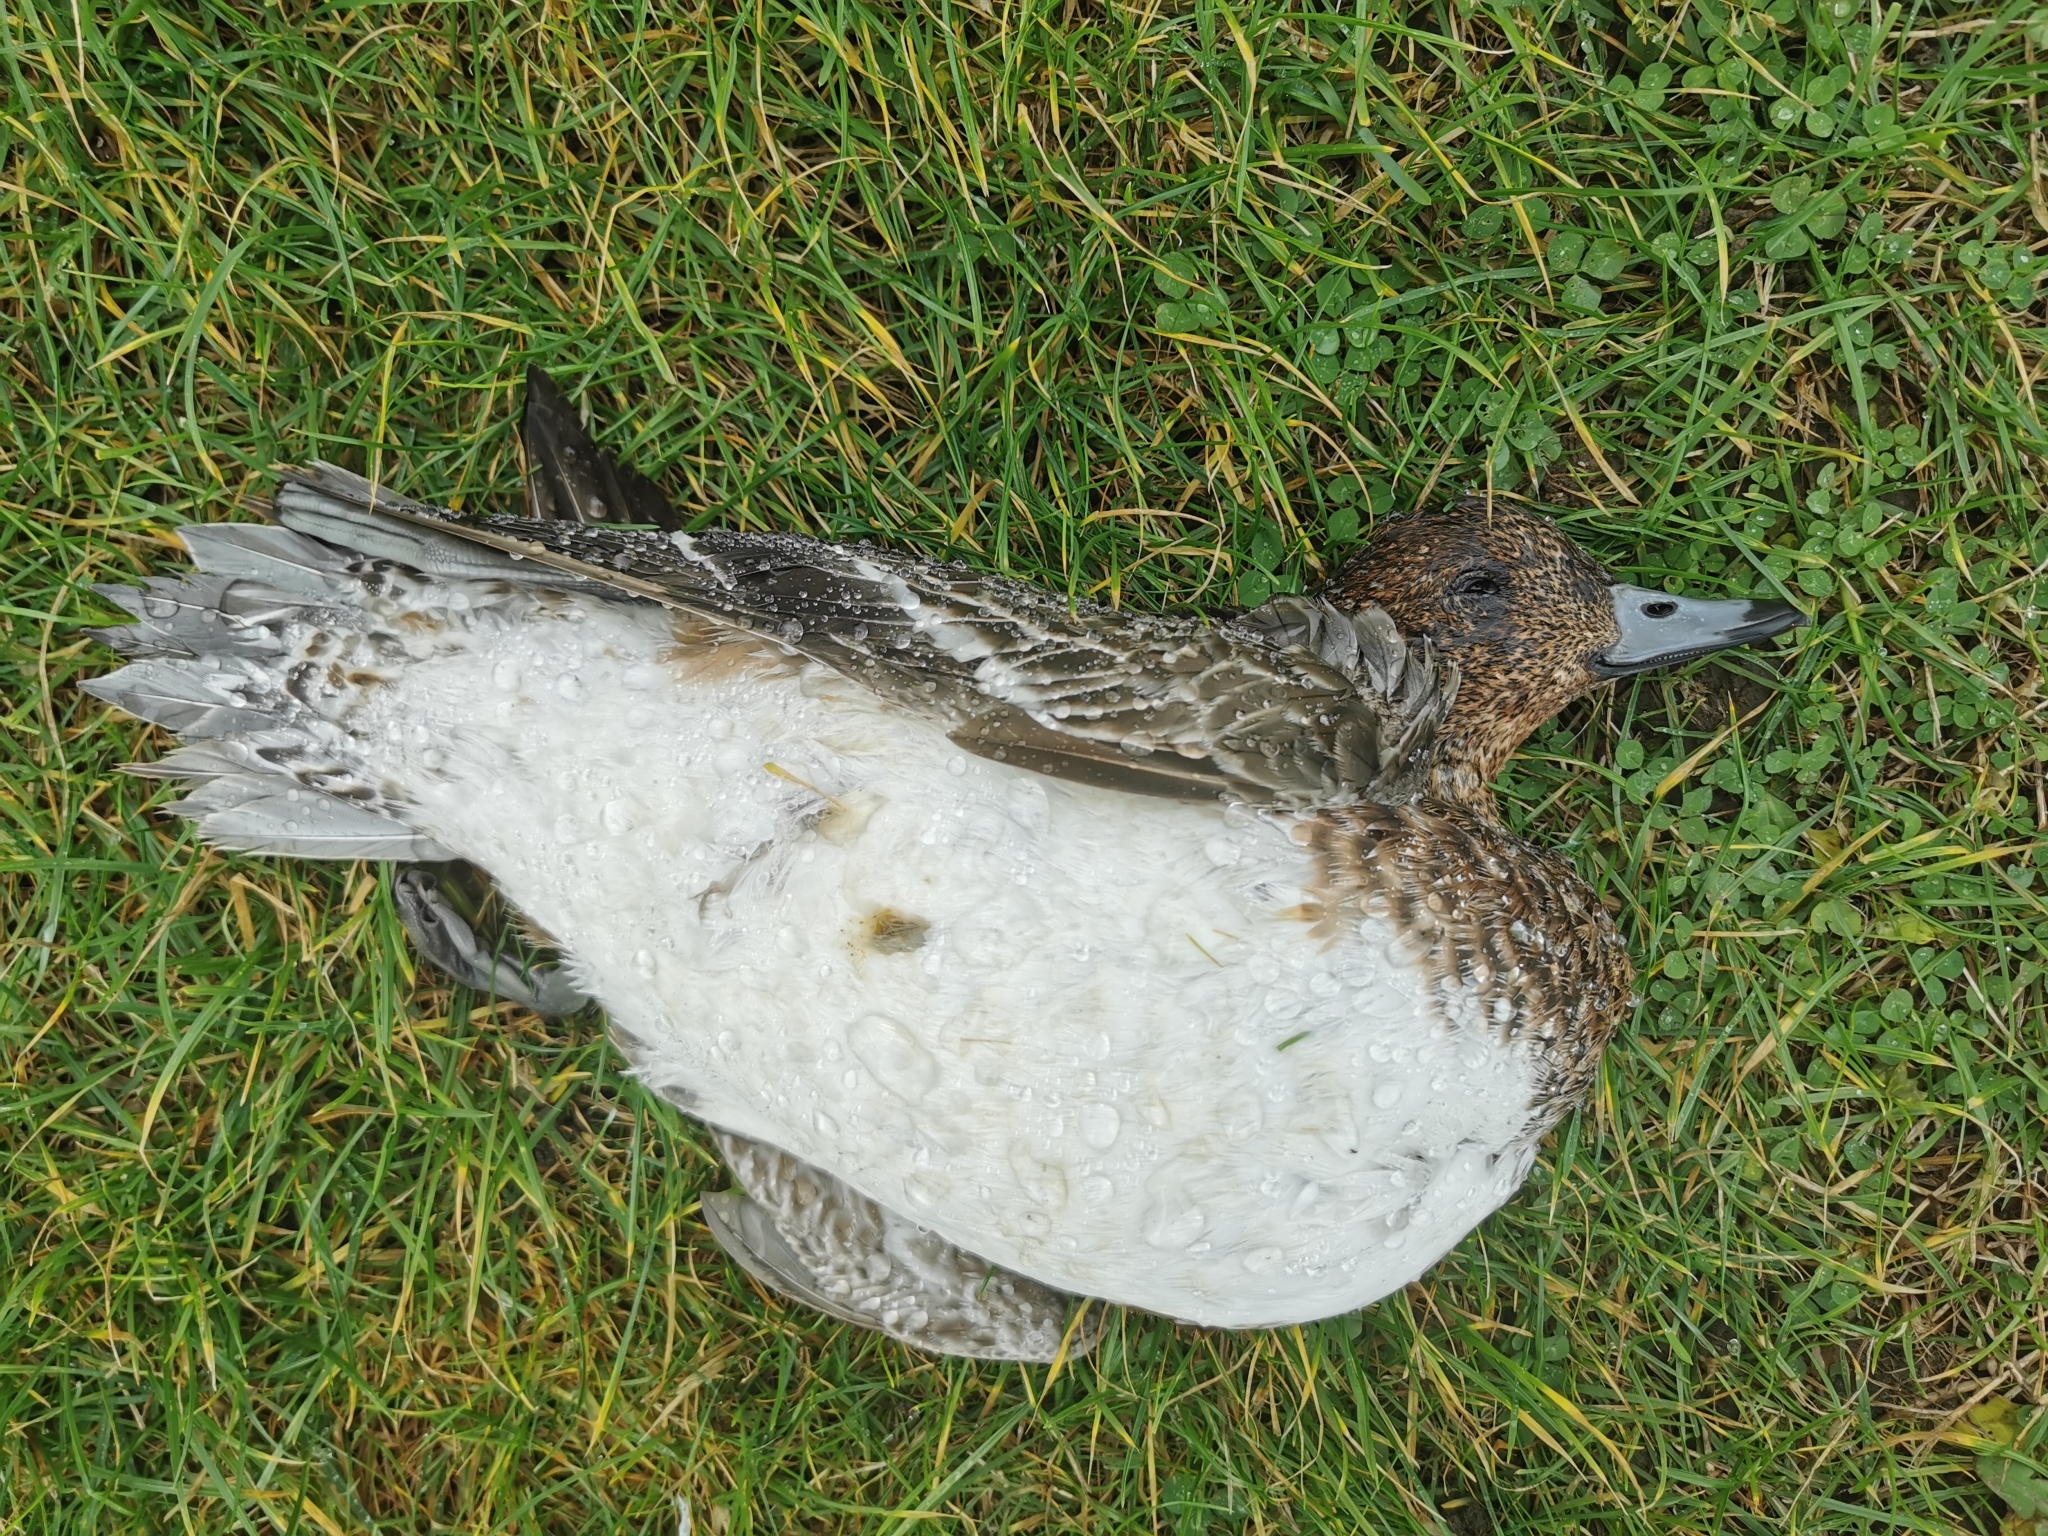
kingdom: Animalia
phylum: Chordata
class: Aves
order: Anseriformes
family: Anatidae
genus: Mareca
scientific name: Mareca penelope
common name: Eurasian wigeon
